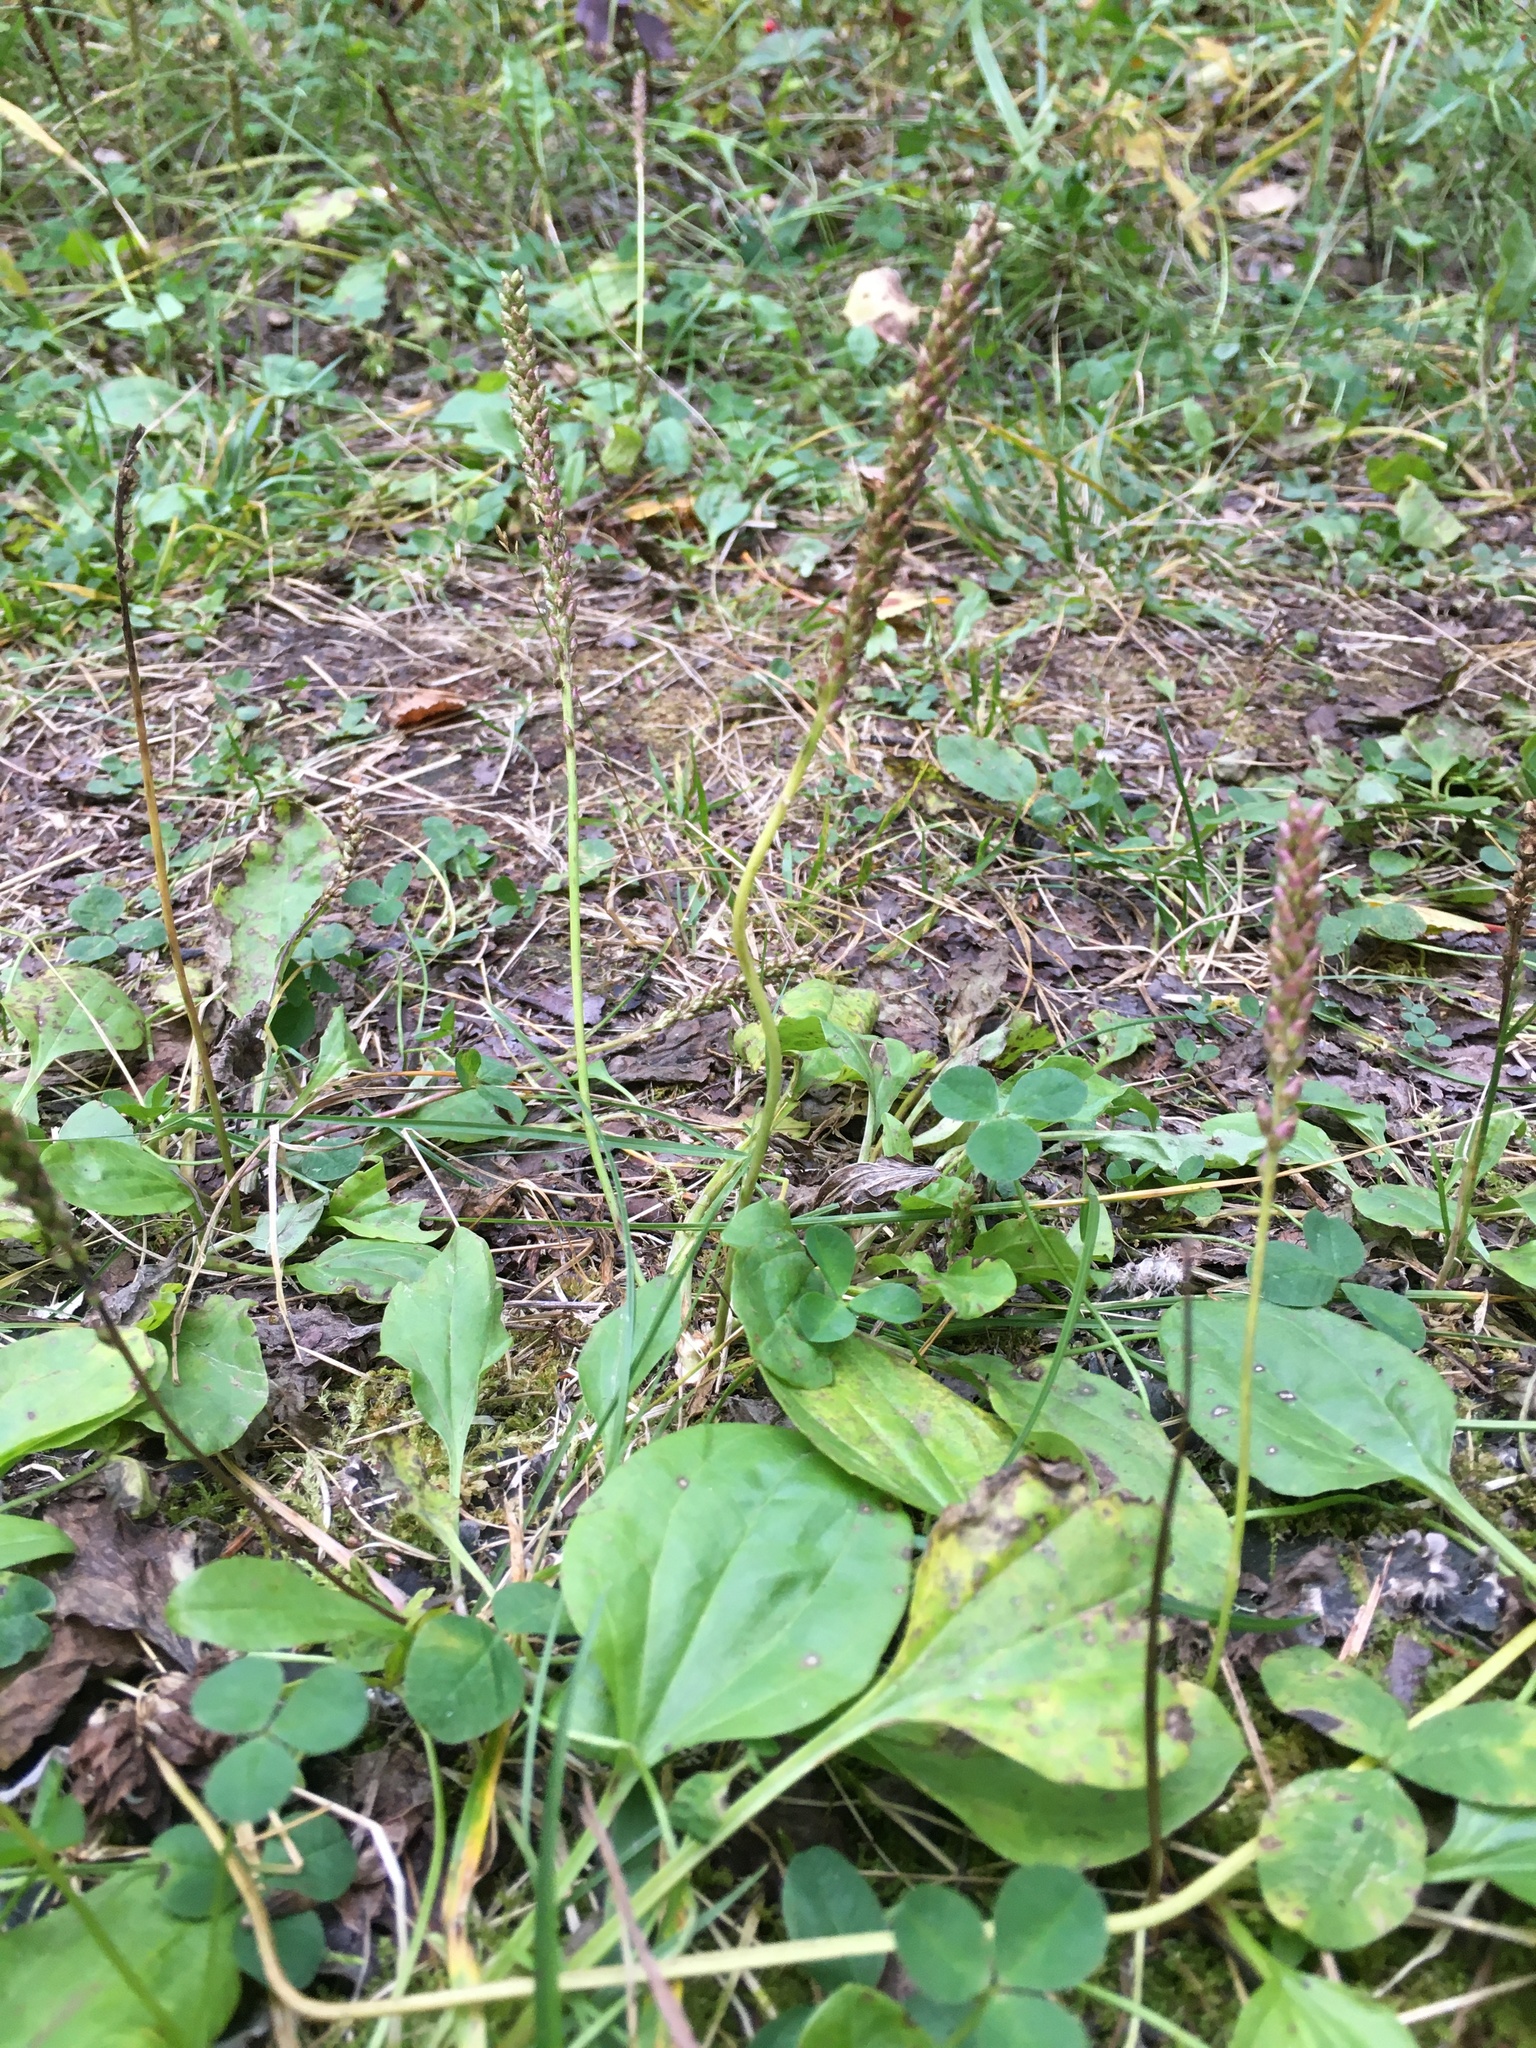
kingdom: Plantae
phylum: Tracheophyta
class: Magnoliopsida
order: Lamiales
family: Plantaginaceae
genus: Plantago
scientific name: Plantago major
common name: Common plantain
